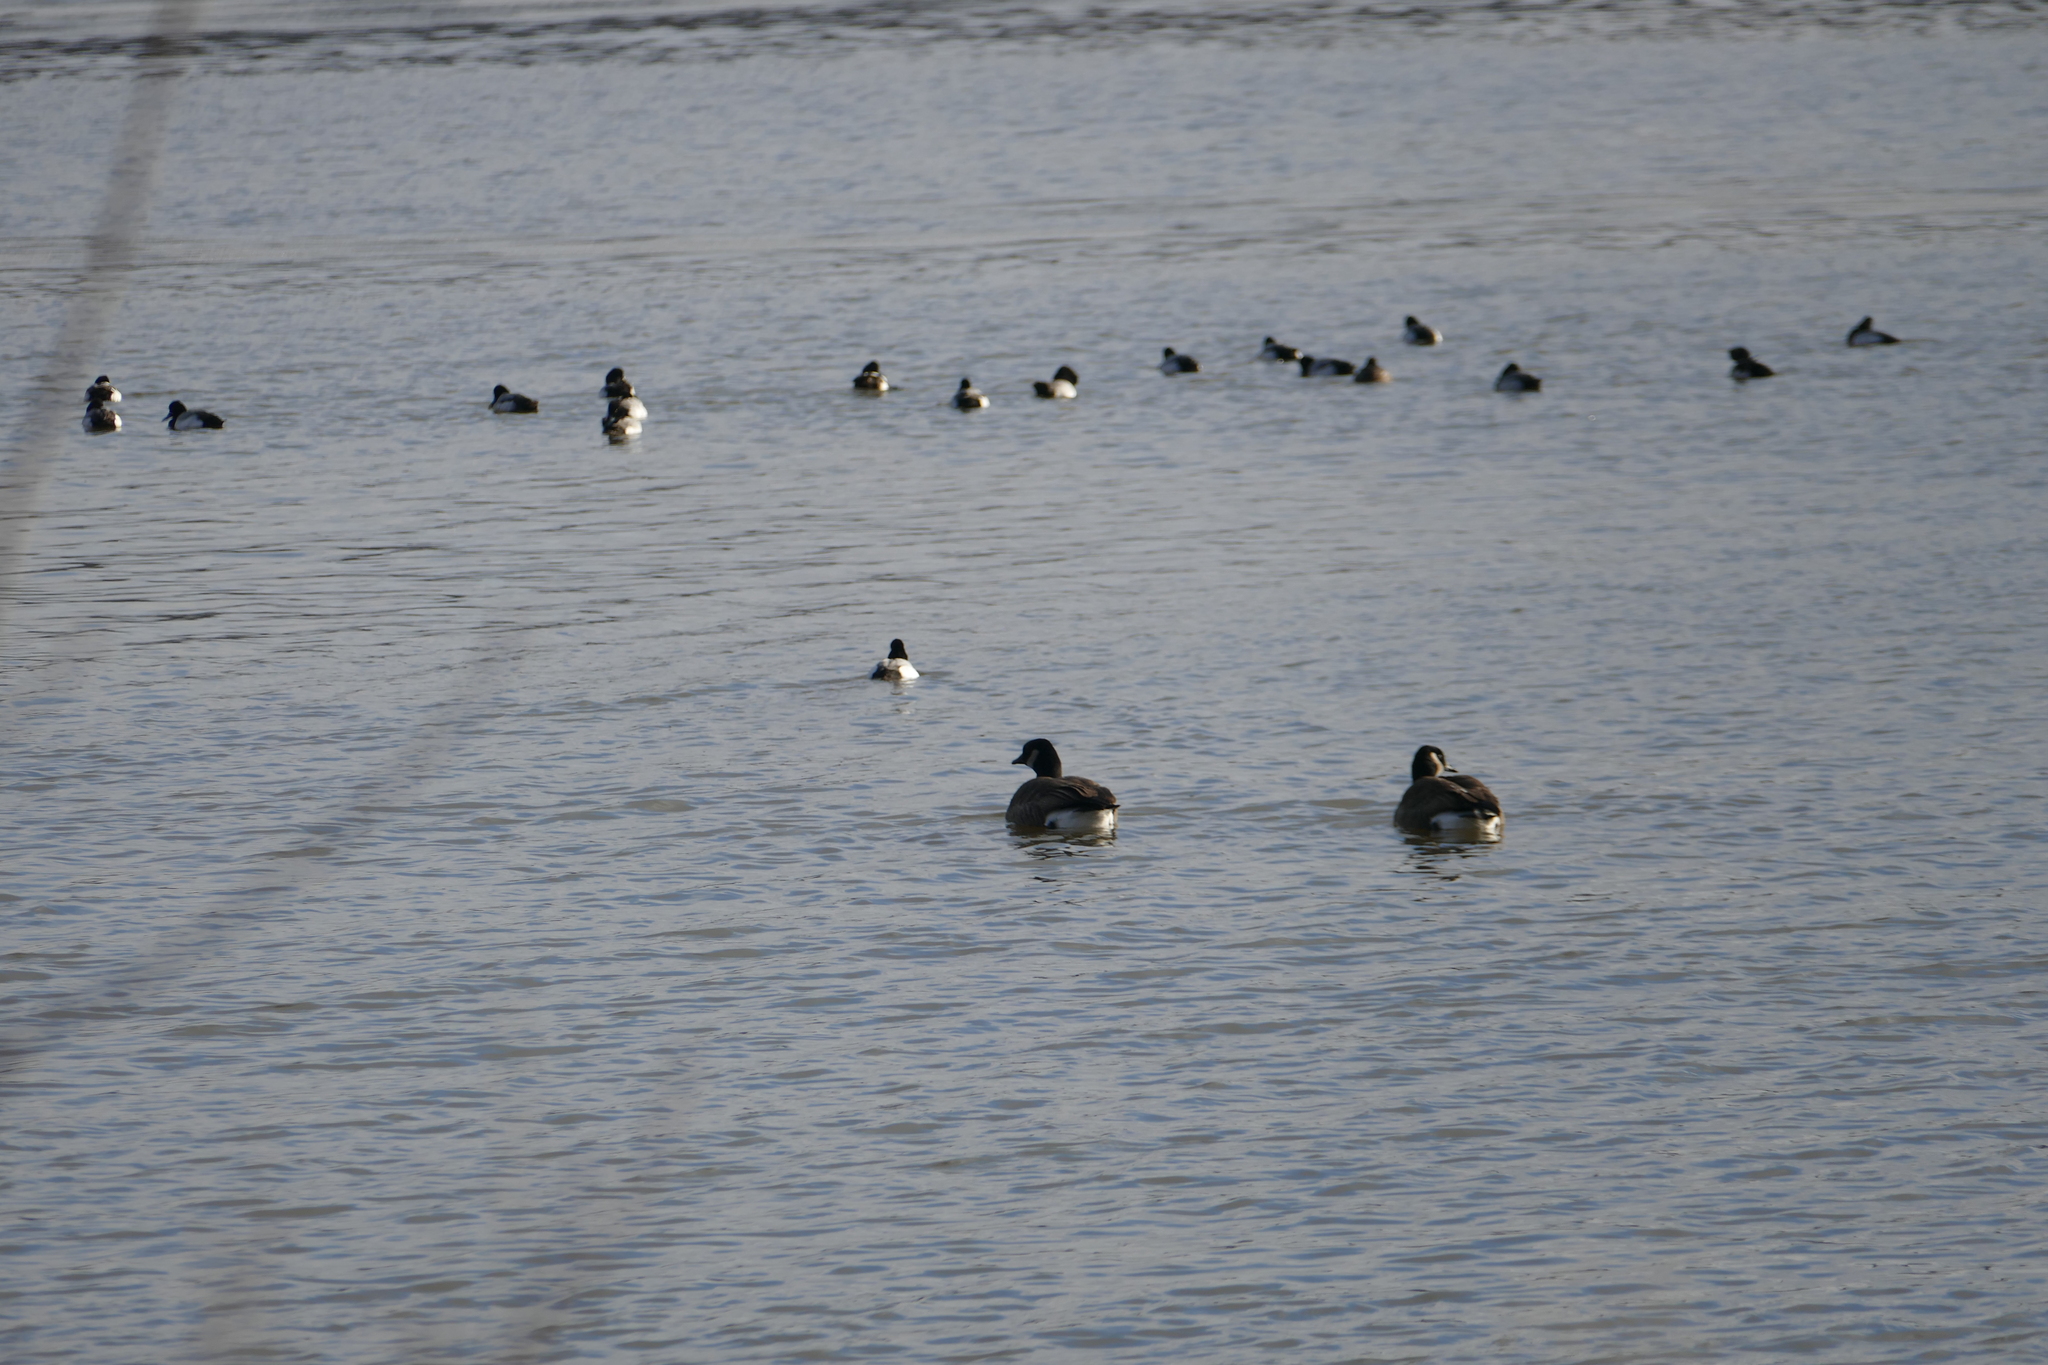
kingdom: Animalia
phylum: Chordata
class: Aves
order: Anseriformes
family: Anatidae
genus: Branta
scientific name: Branta canadensis
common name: Canada goose
